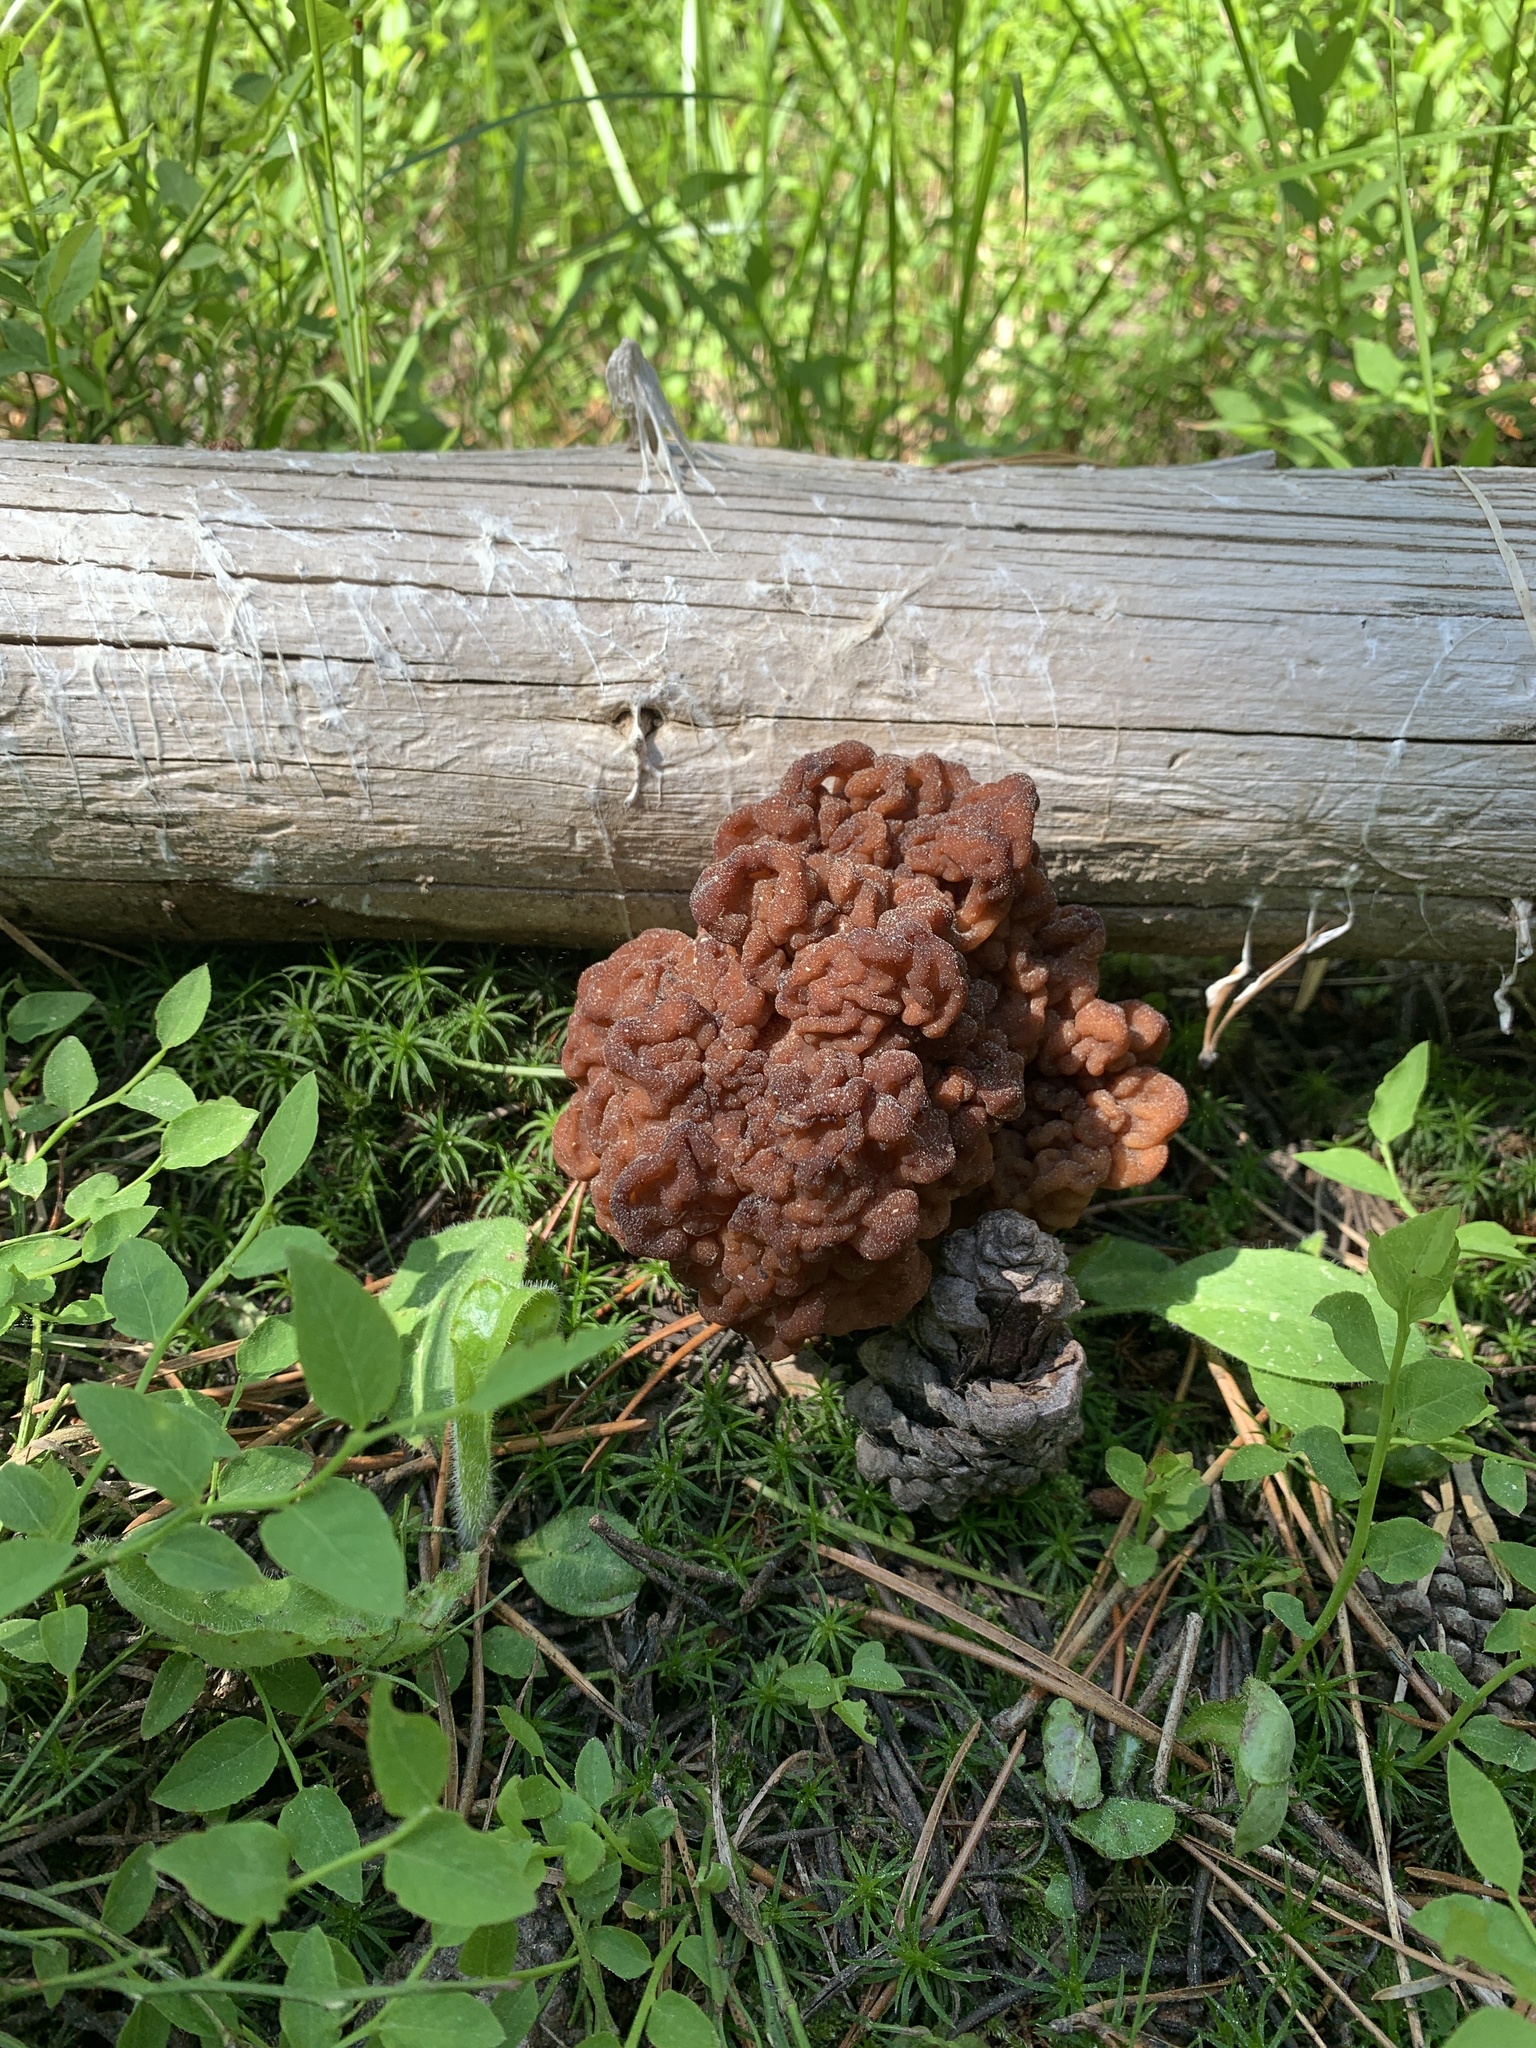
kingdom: Fungi
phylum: Ascomycota
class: Pezizomycetes
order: Pezizales
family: Discinaceae
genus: Gyromitra
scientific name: Gyromitra esculenta
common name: False morel
